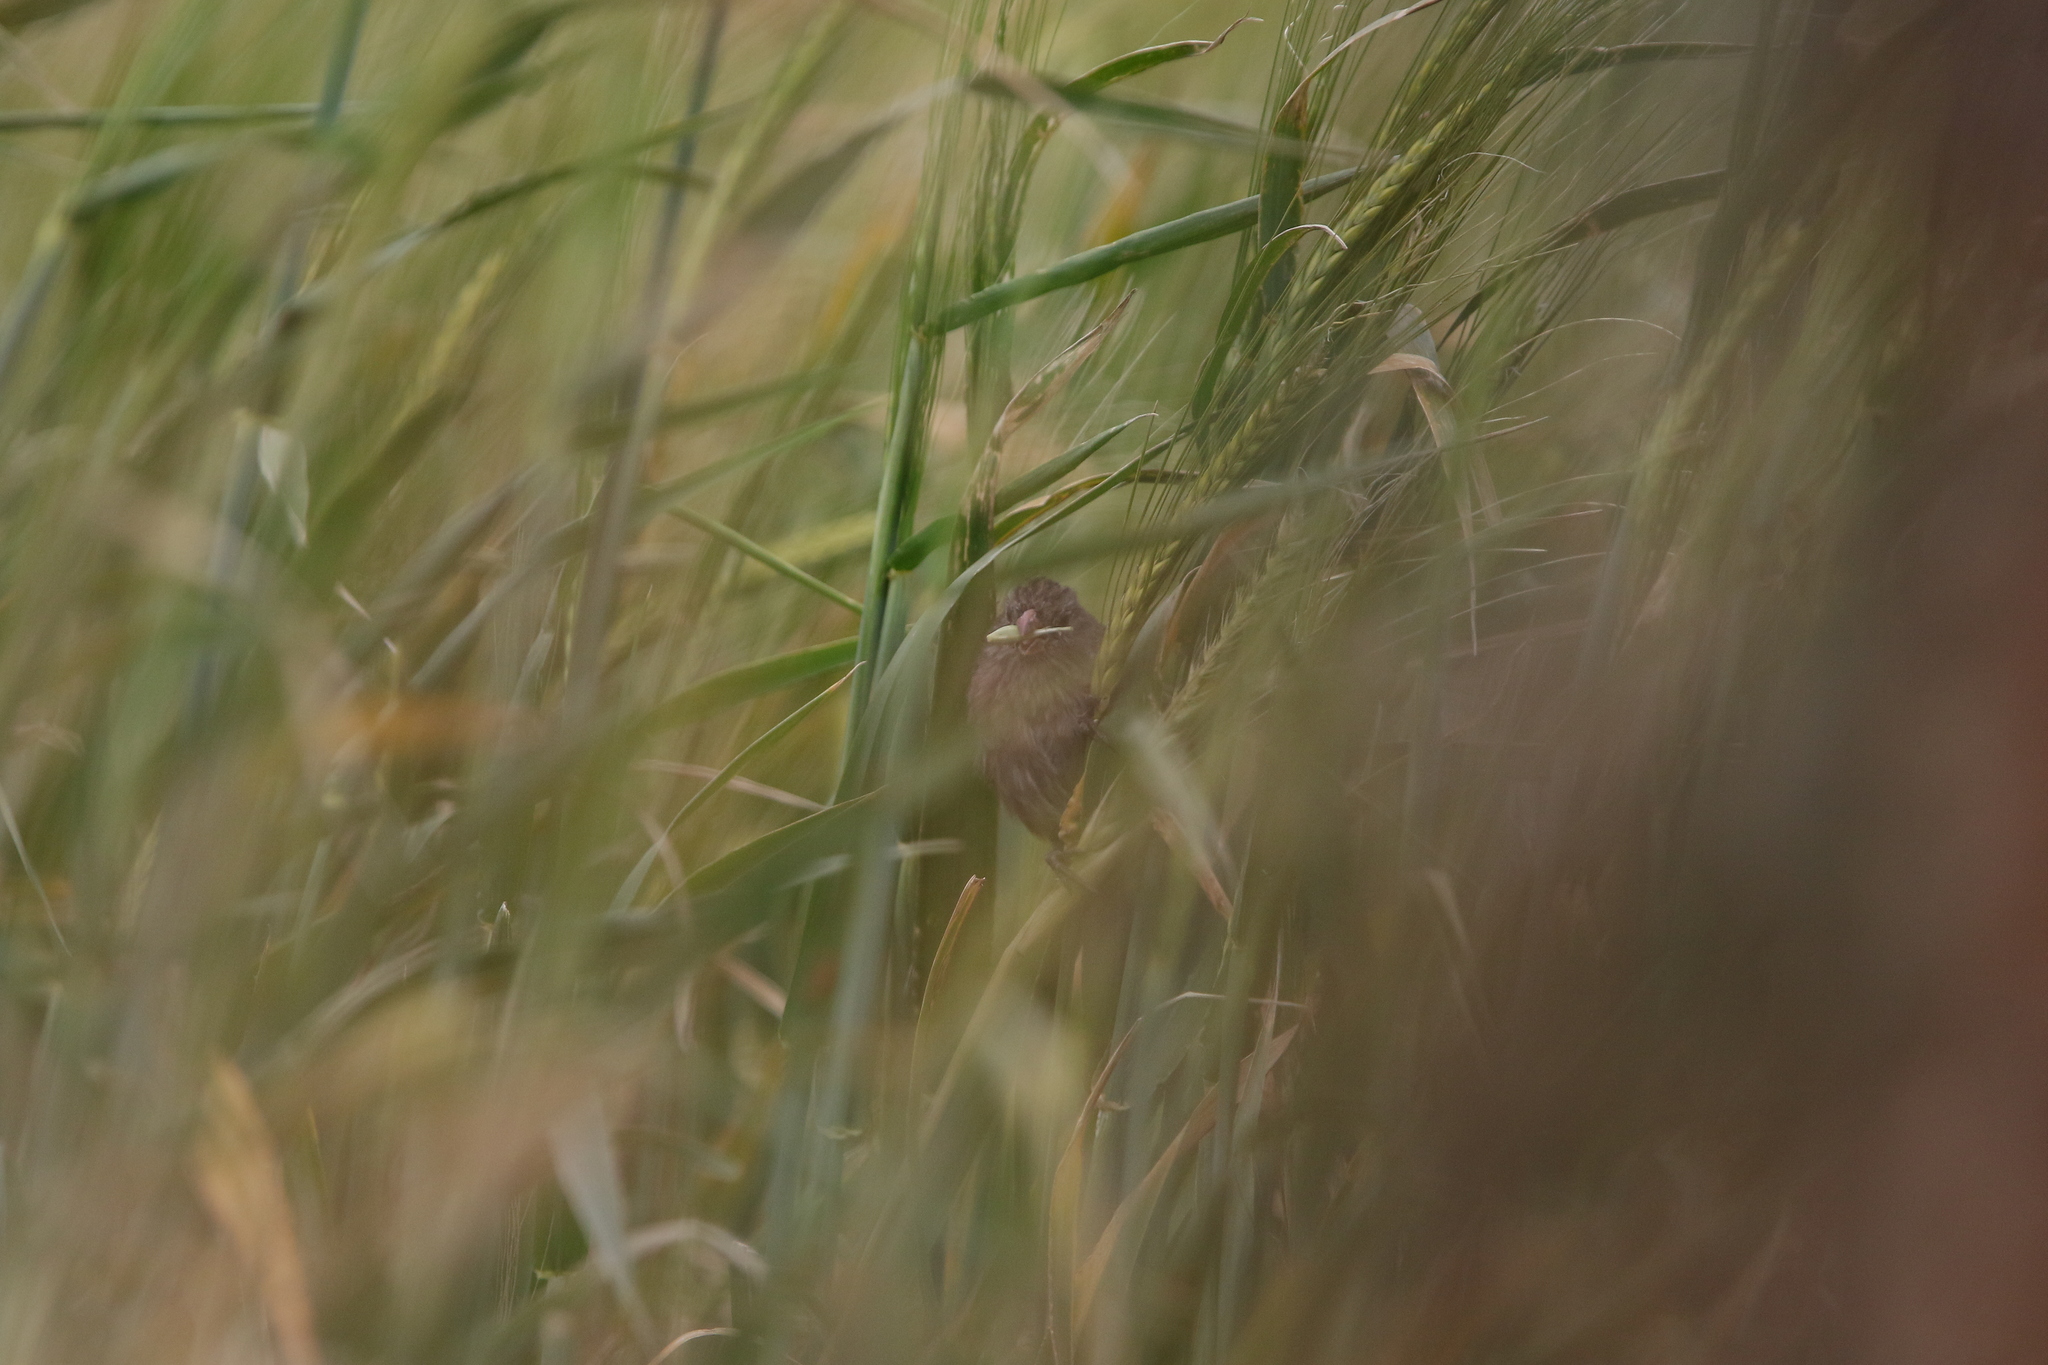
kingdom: Animalia
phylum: Chordata
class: Aves
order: Passeriformes
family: Thraupidae
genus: Catamenia
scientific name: Catamenia inornata
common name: Plain-colored seedeater
